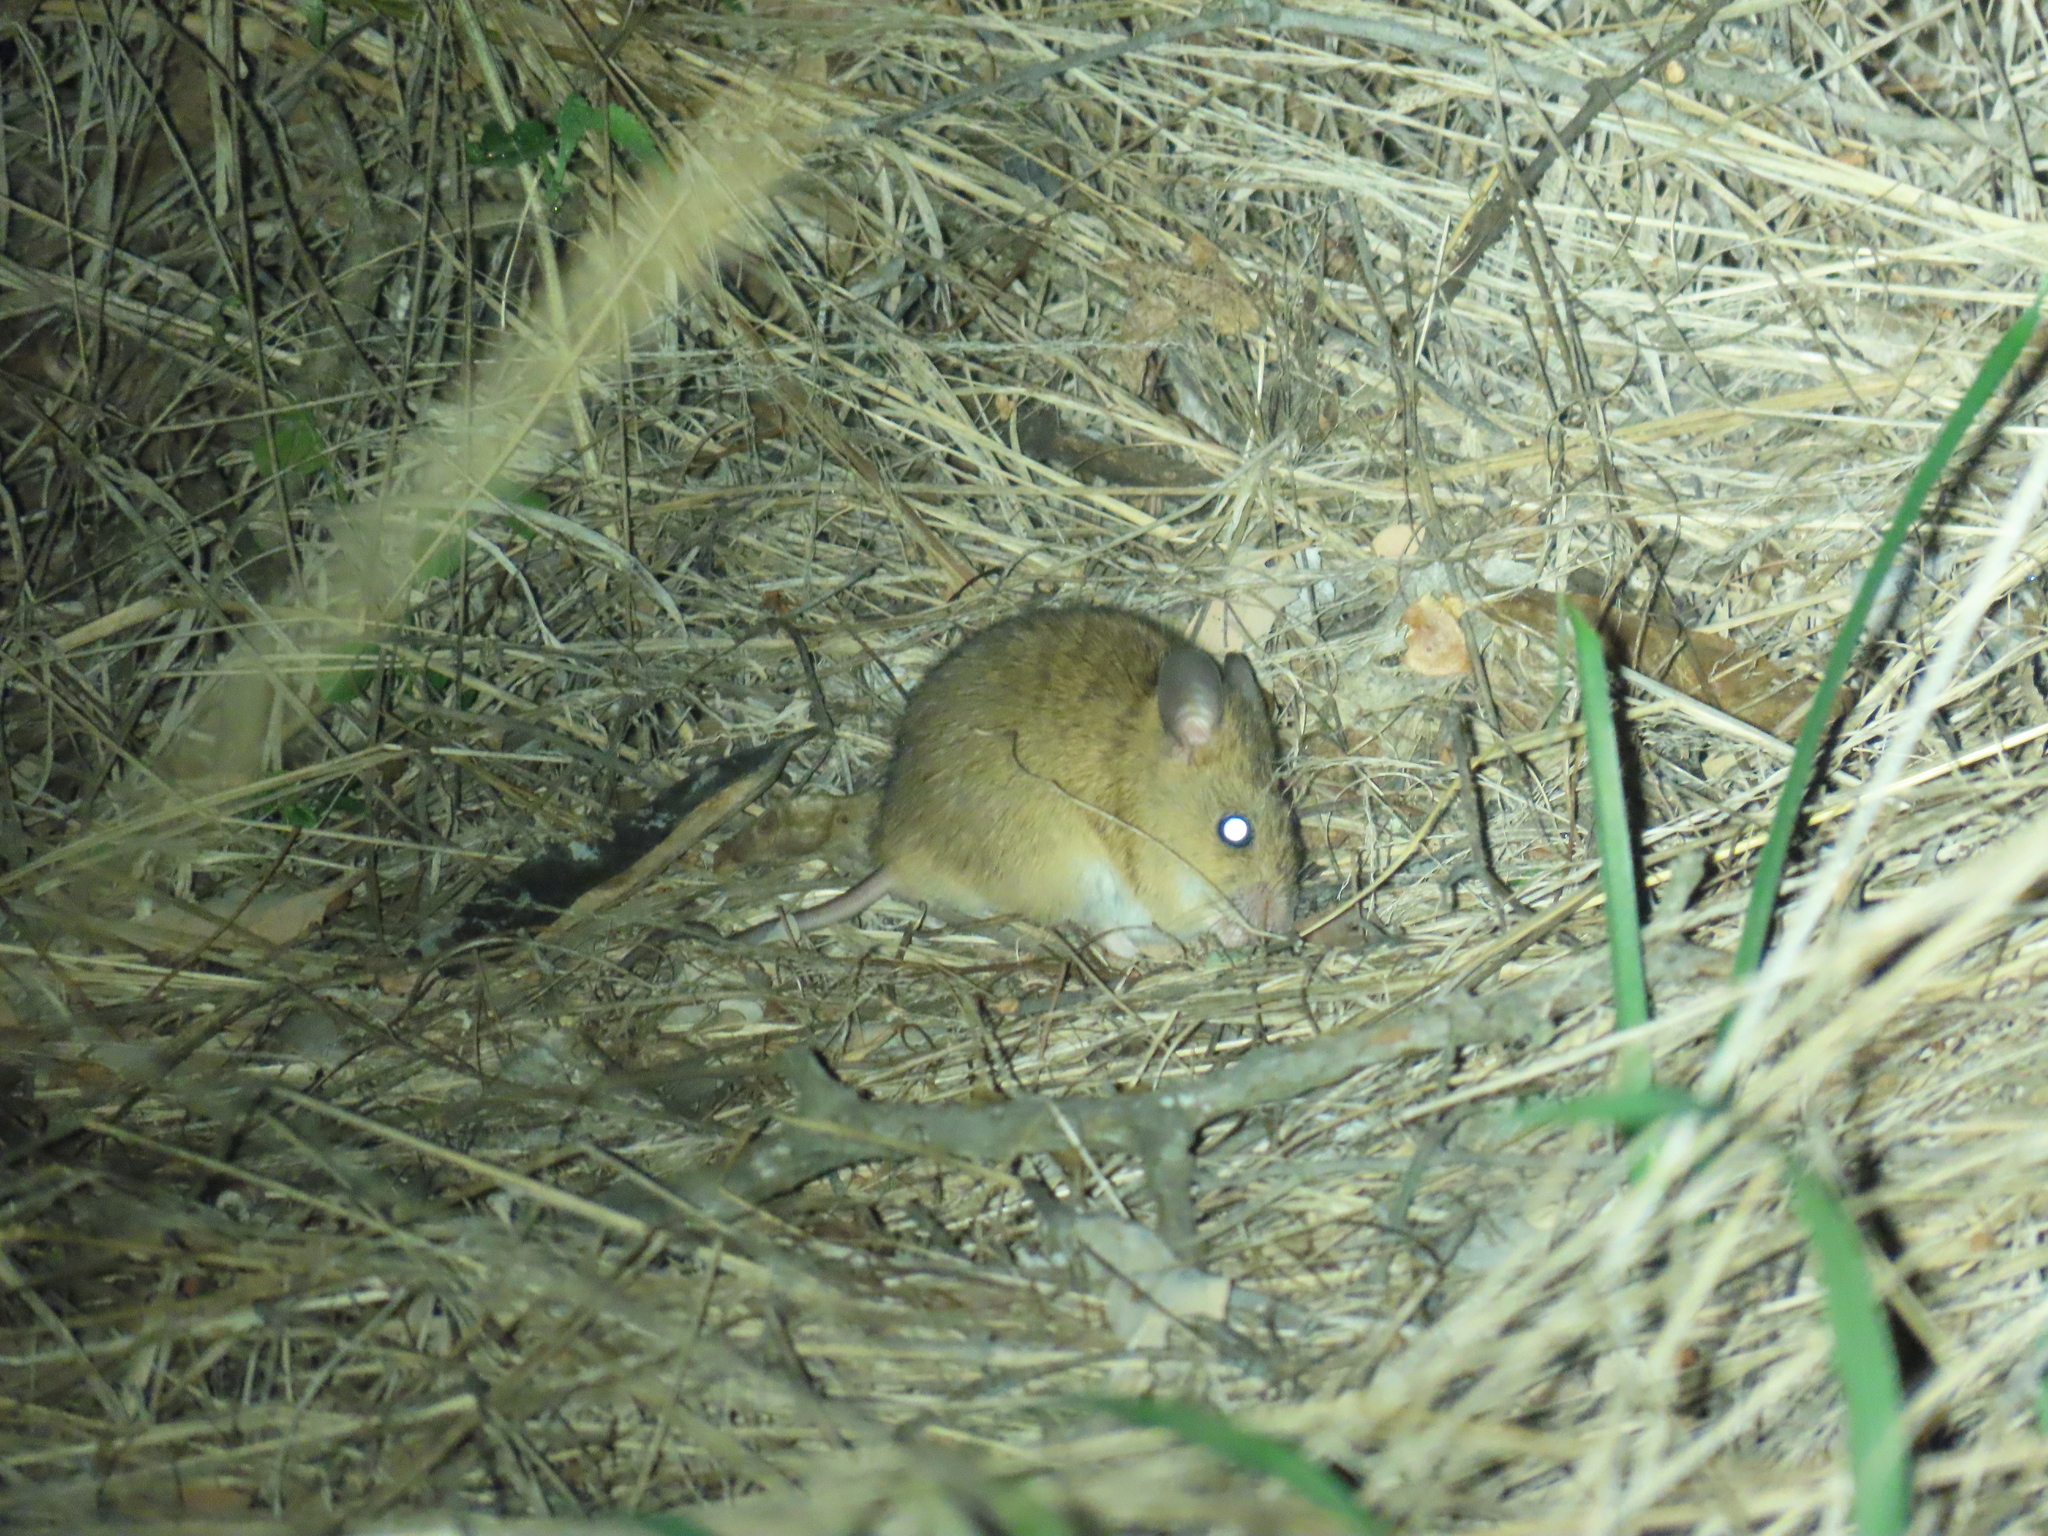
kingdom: Animalia
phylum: Chordata
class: Mammalia
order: Rodentia
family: Muridae
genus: Aethomys
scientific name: Aethomys ineptus
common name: Tete veld aethomys
